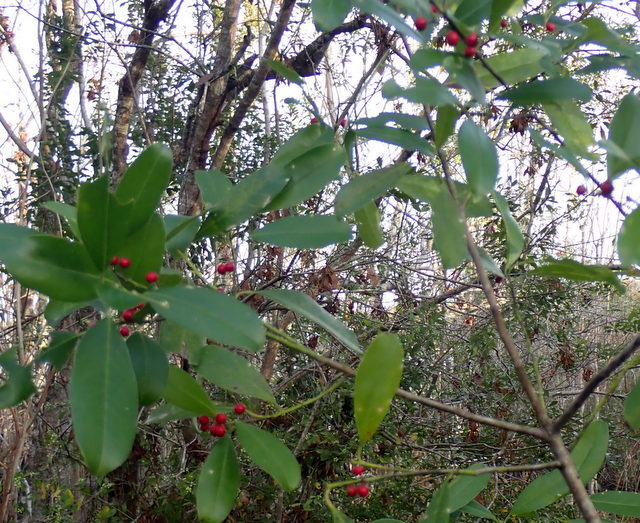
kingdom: Plantae
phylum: Tracheophyta
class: Magnoliopsida
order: Aquifoliales
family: Aquifoliaceae
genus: Ilex
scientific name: Ilex cassine
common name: Dahoon
